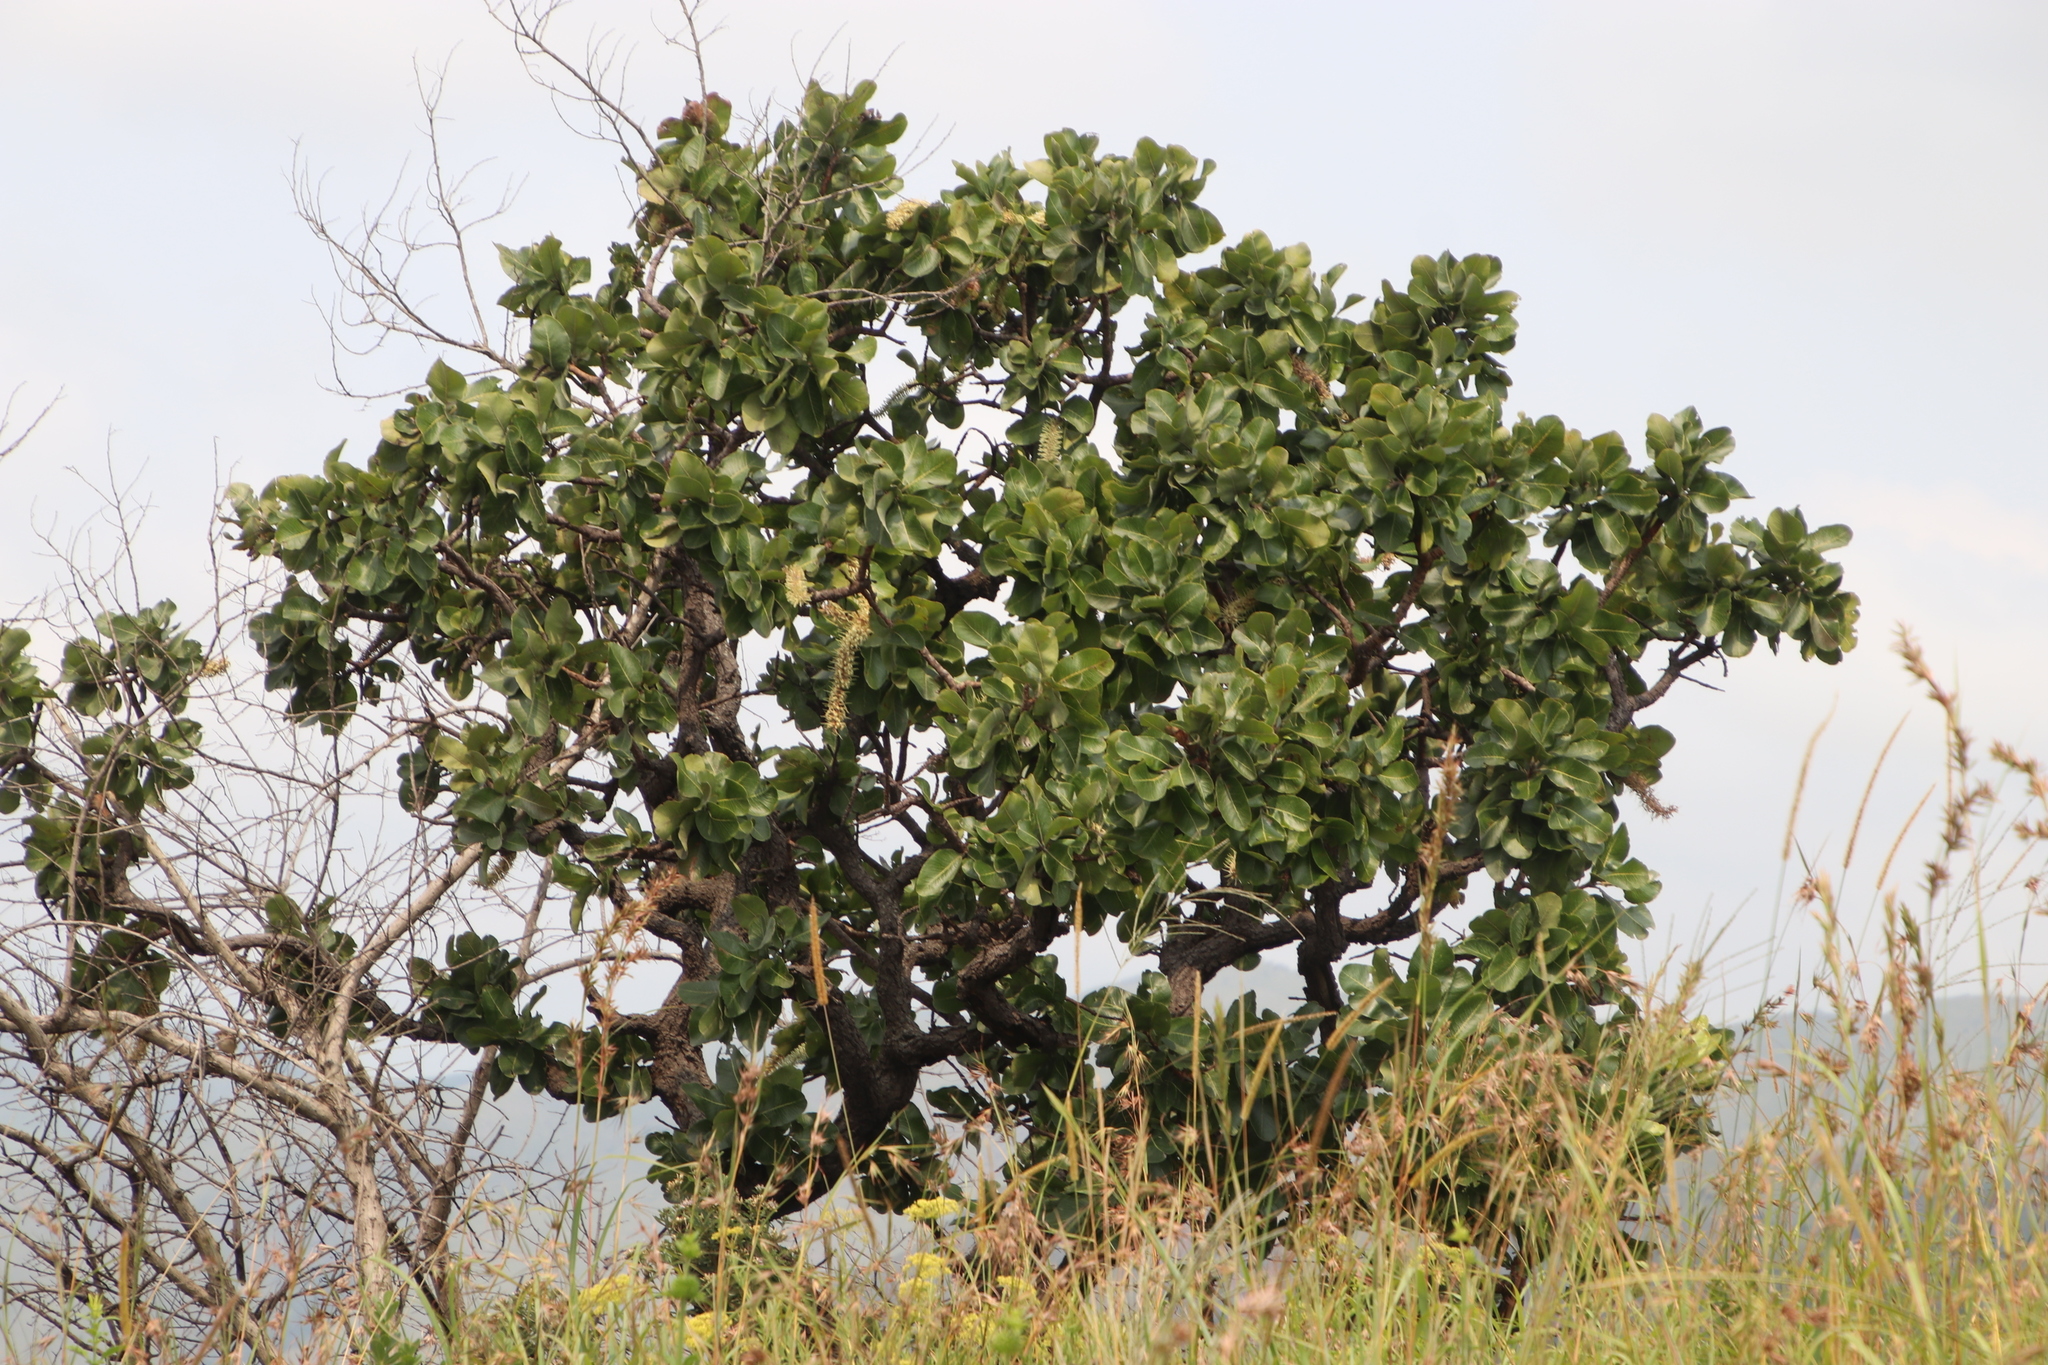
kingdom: Plantae
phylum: Tracheophyta
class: Magnoliopsida
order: Proteales
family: Proteaceae
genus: Faurea
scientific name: Faurea rochetiana
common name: Broad-leaved beech
